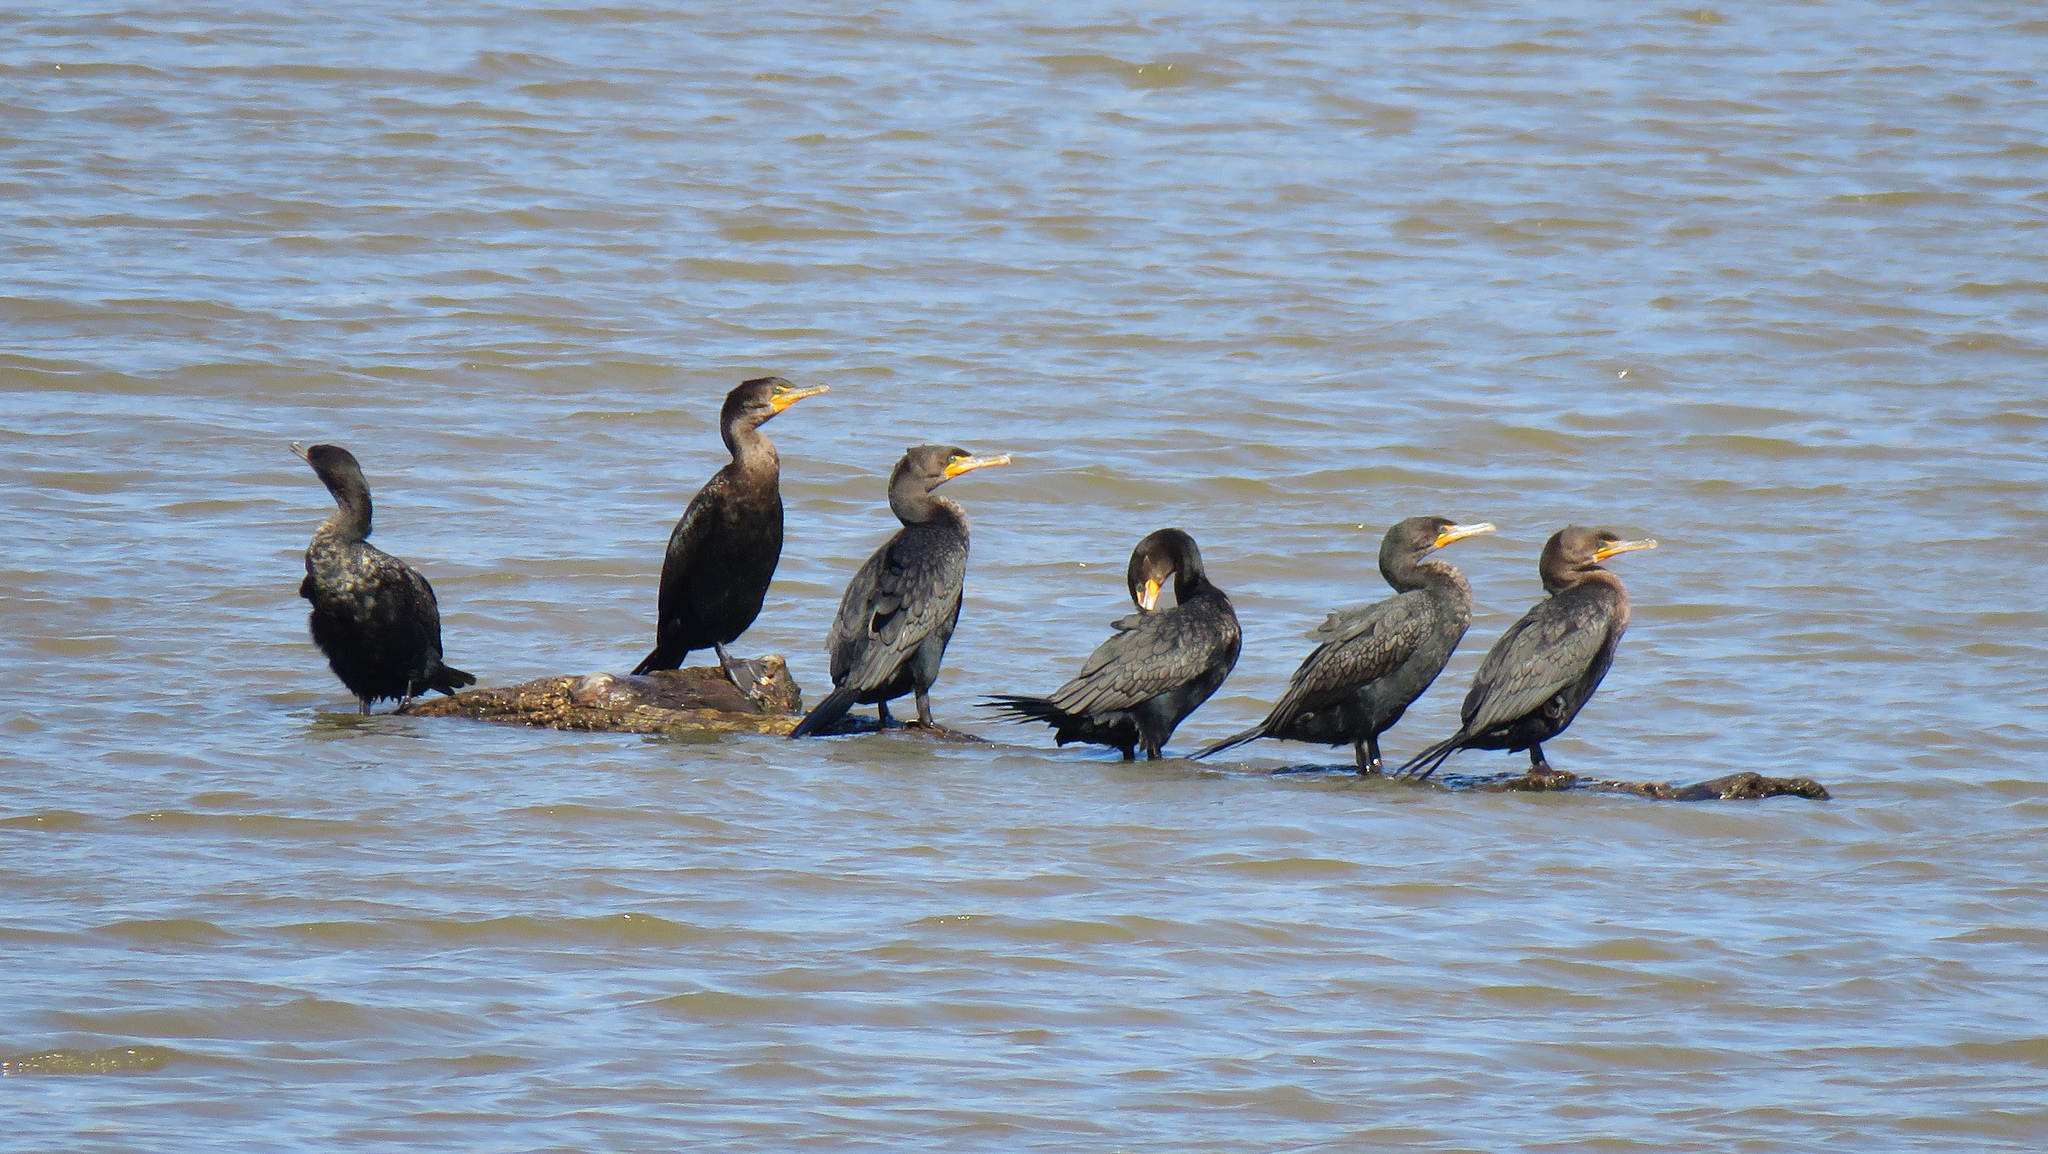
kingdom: Animalia
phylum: Chordata
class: Aves
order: Suliformes
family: Phalacrocoracidae
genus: Phalacrocorax
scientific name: Phalacrocorax auritus
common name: Double-crested cormorant
